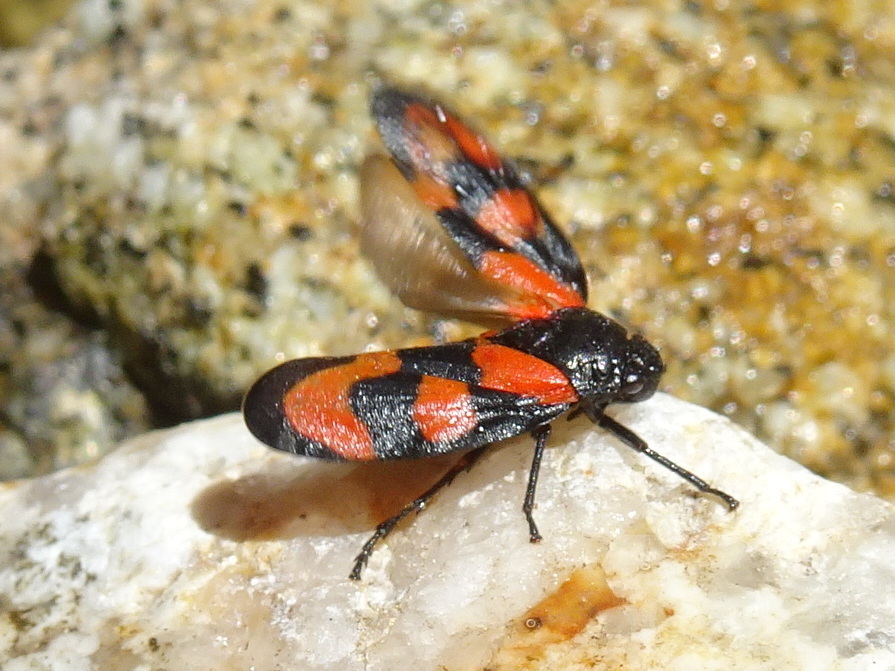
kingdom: Animalia
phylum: Arthropoda
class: Insecta
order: Hemiptera
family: Cercopidae
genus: Cercopis
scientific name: Cercopis vulnerata
